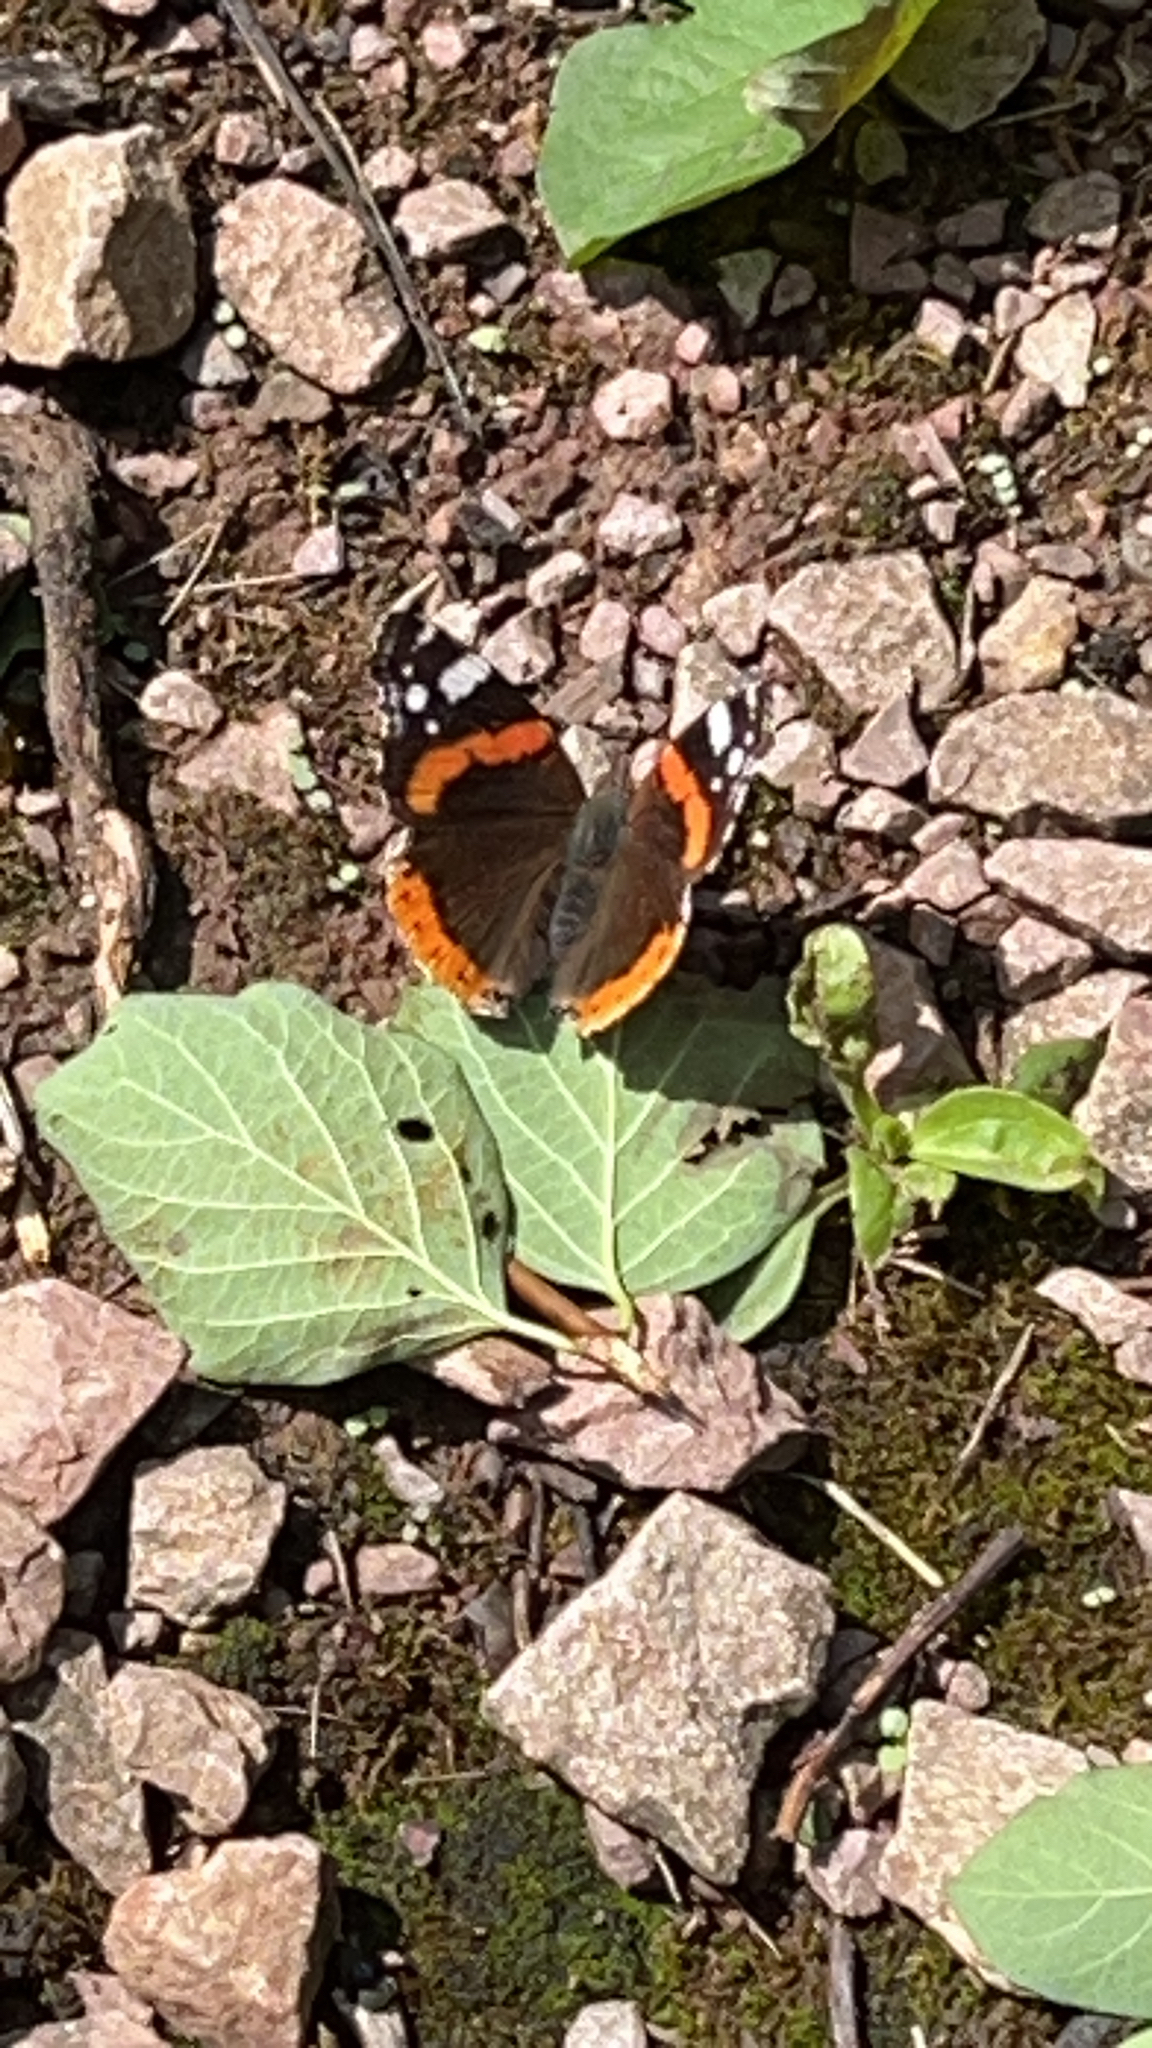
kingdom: Animalia
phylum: Arthropoda
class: Insecta
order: Lepidoptera
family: Nymphalidae
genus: Vanessa
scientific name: Vanessa atalanta
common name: Red admiral
